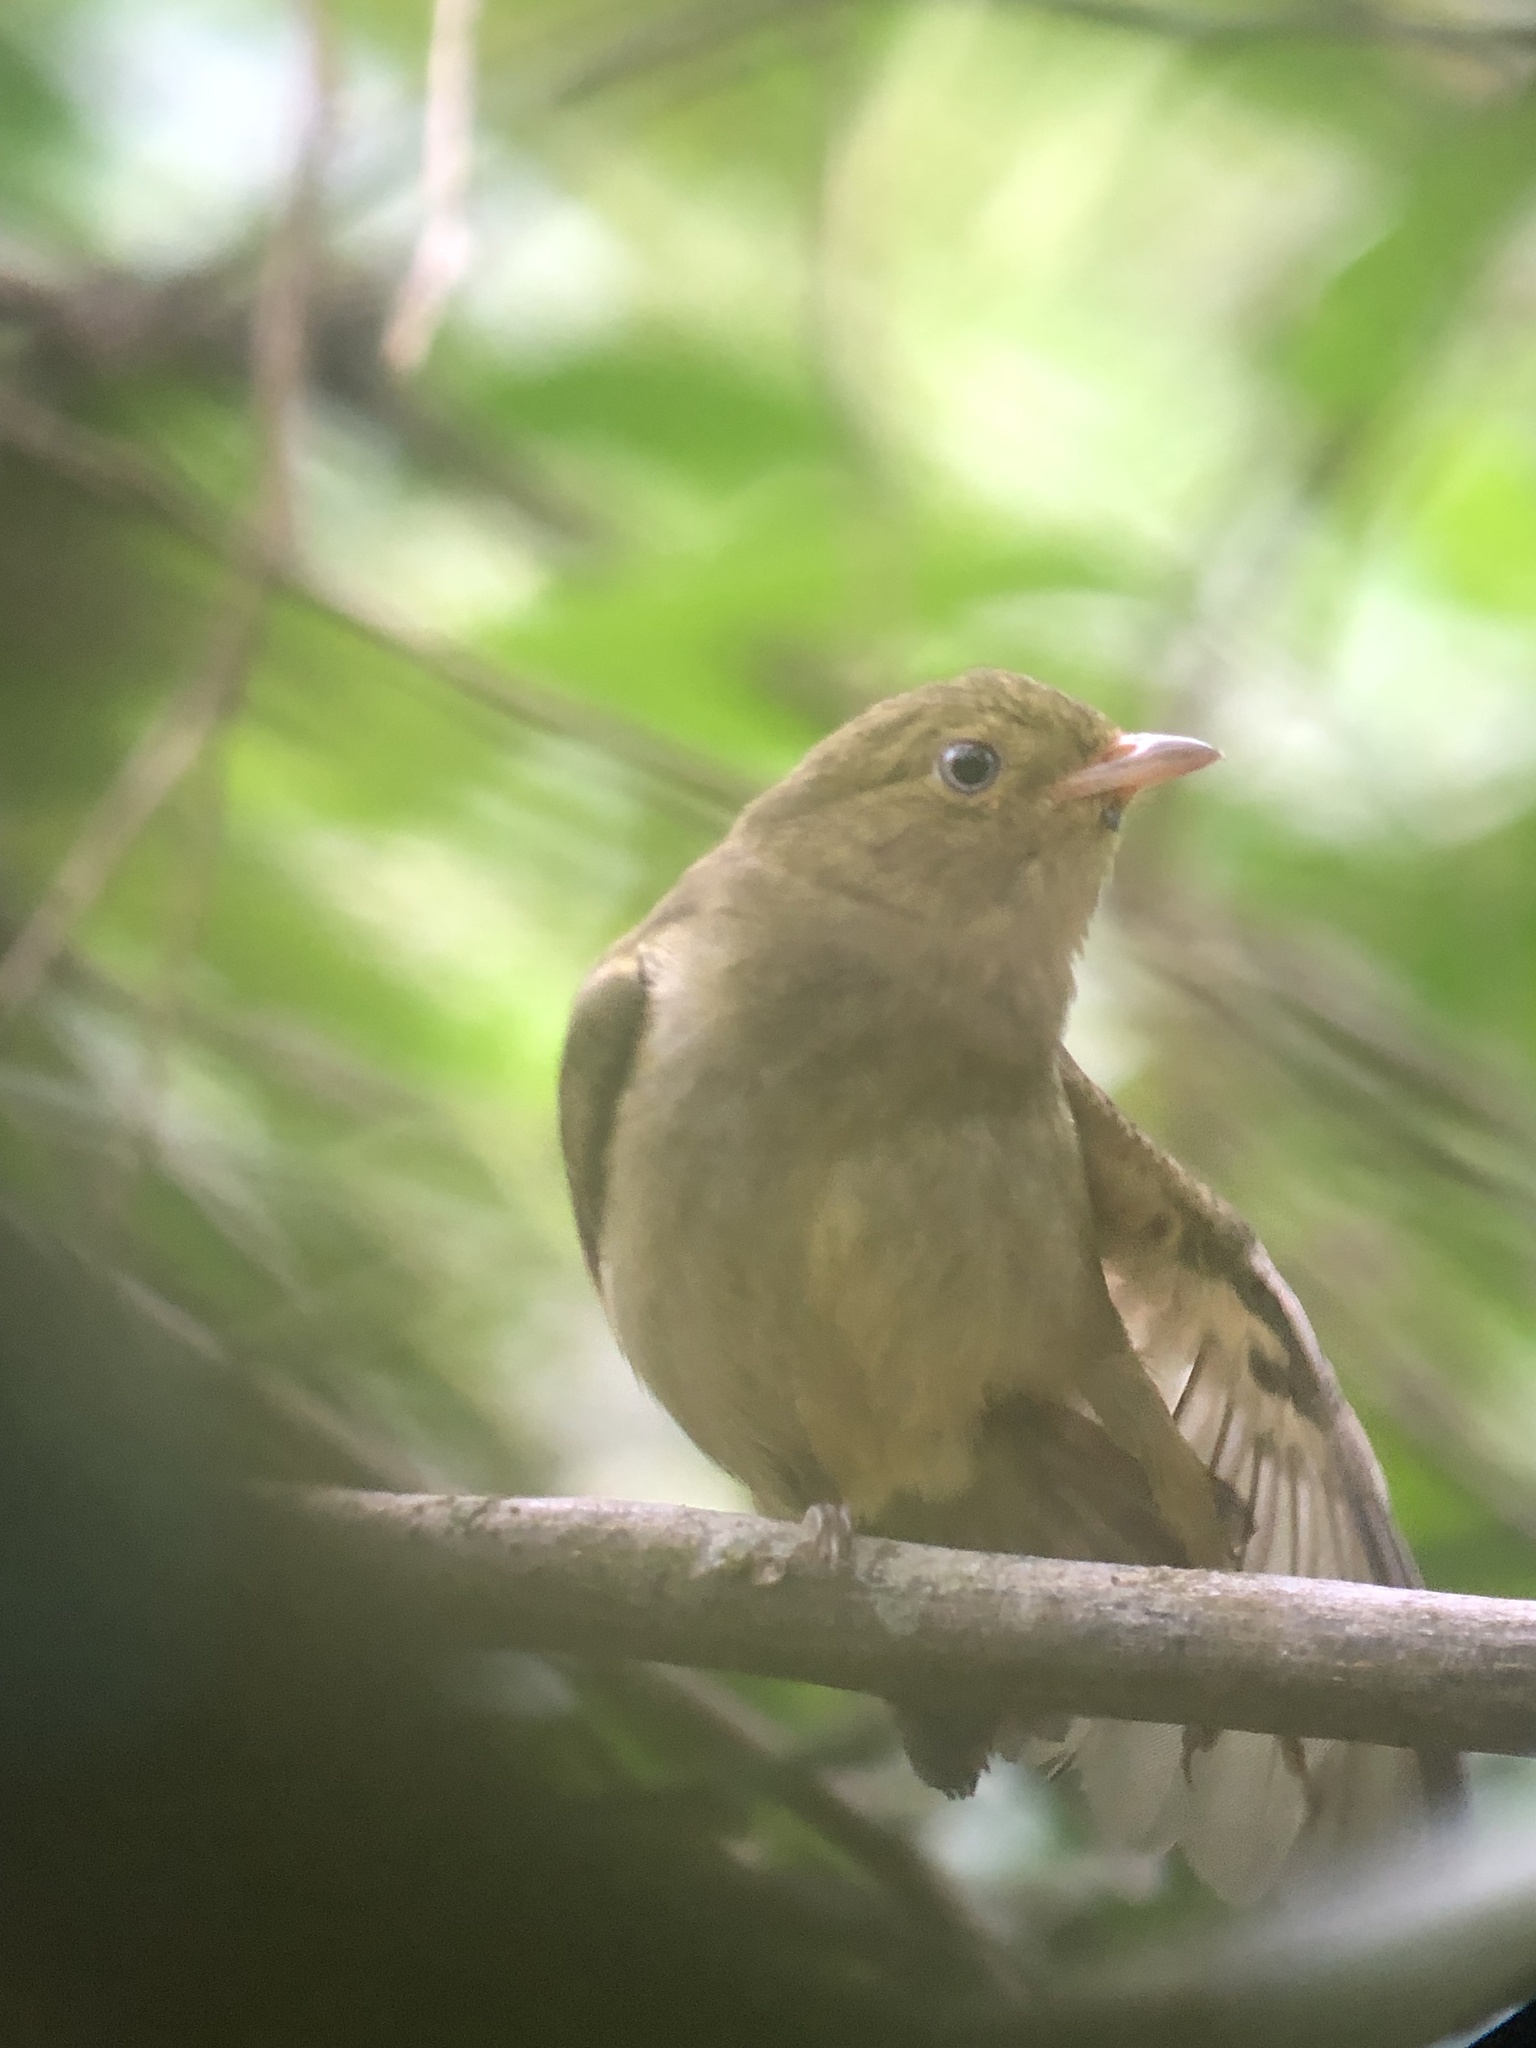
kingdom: Animalia
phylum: Chordata
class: Aves
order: Passeriformes
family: Pipridae
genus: Pipra
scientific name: Pipra mentalis
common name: Red-capped manakin
